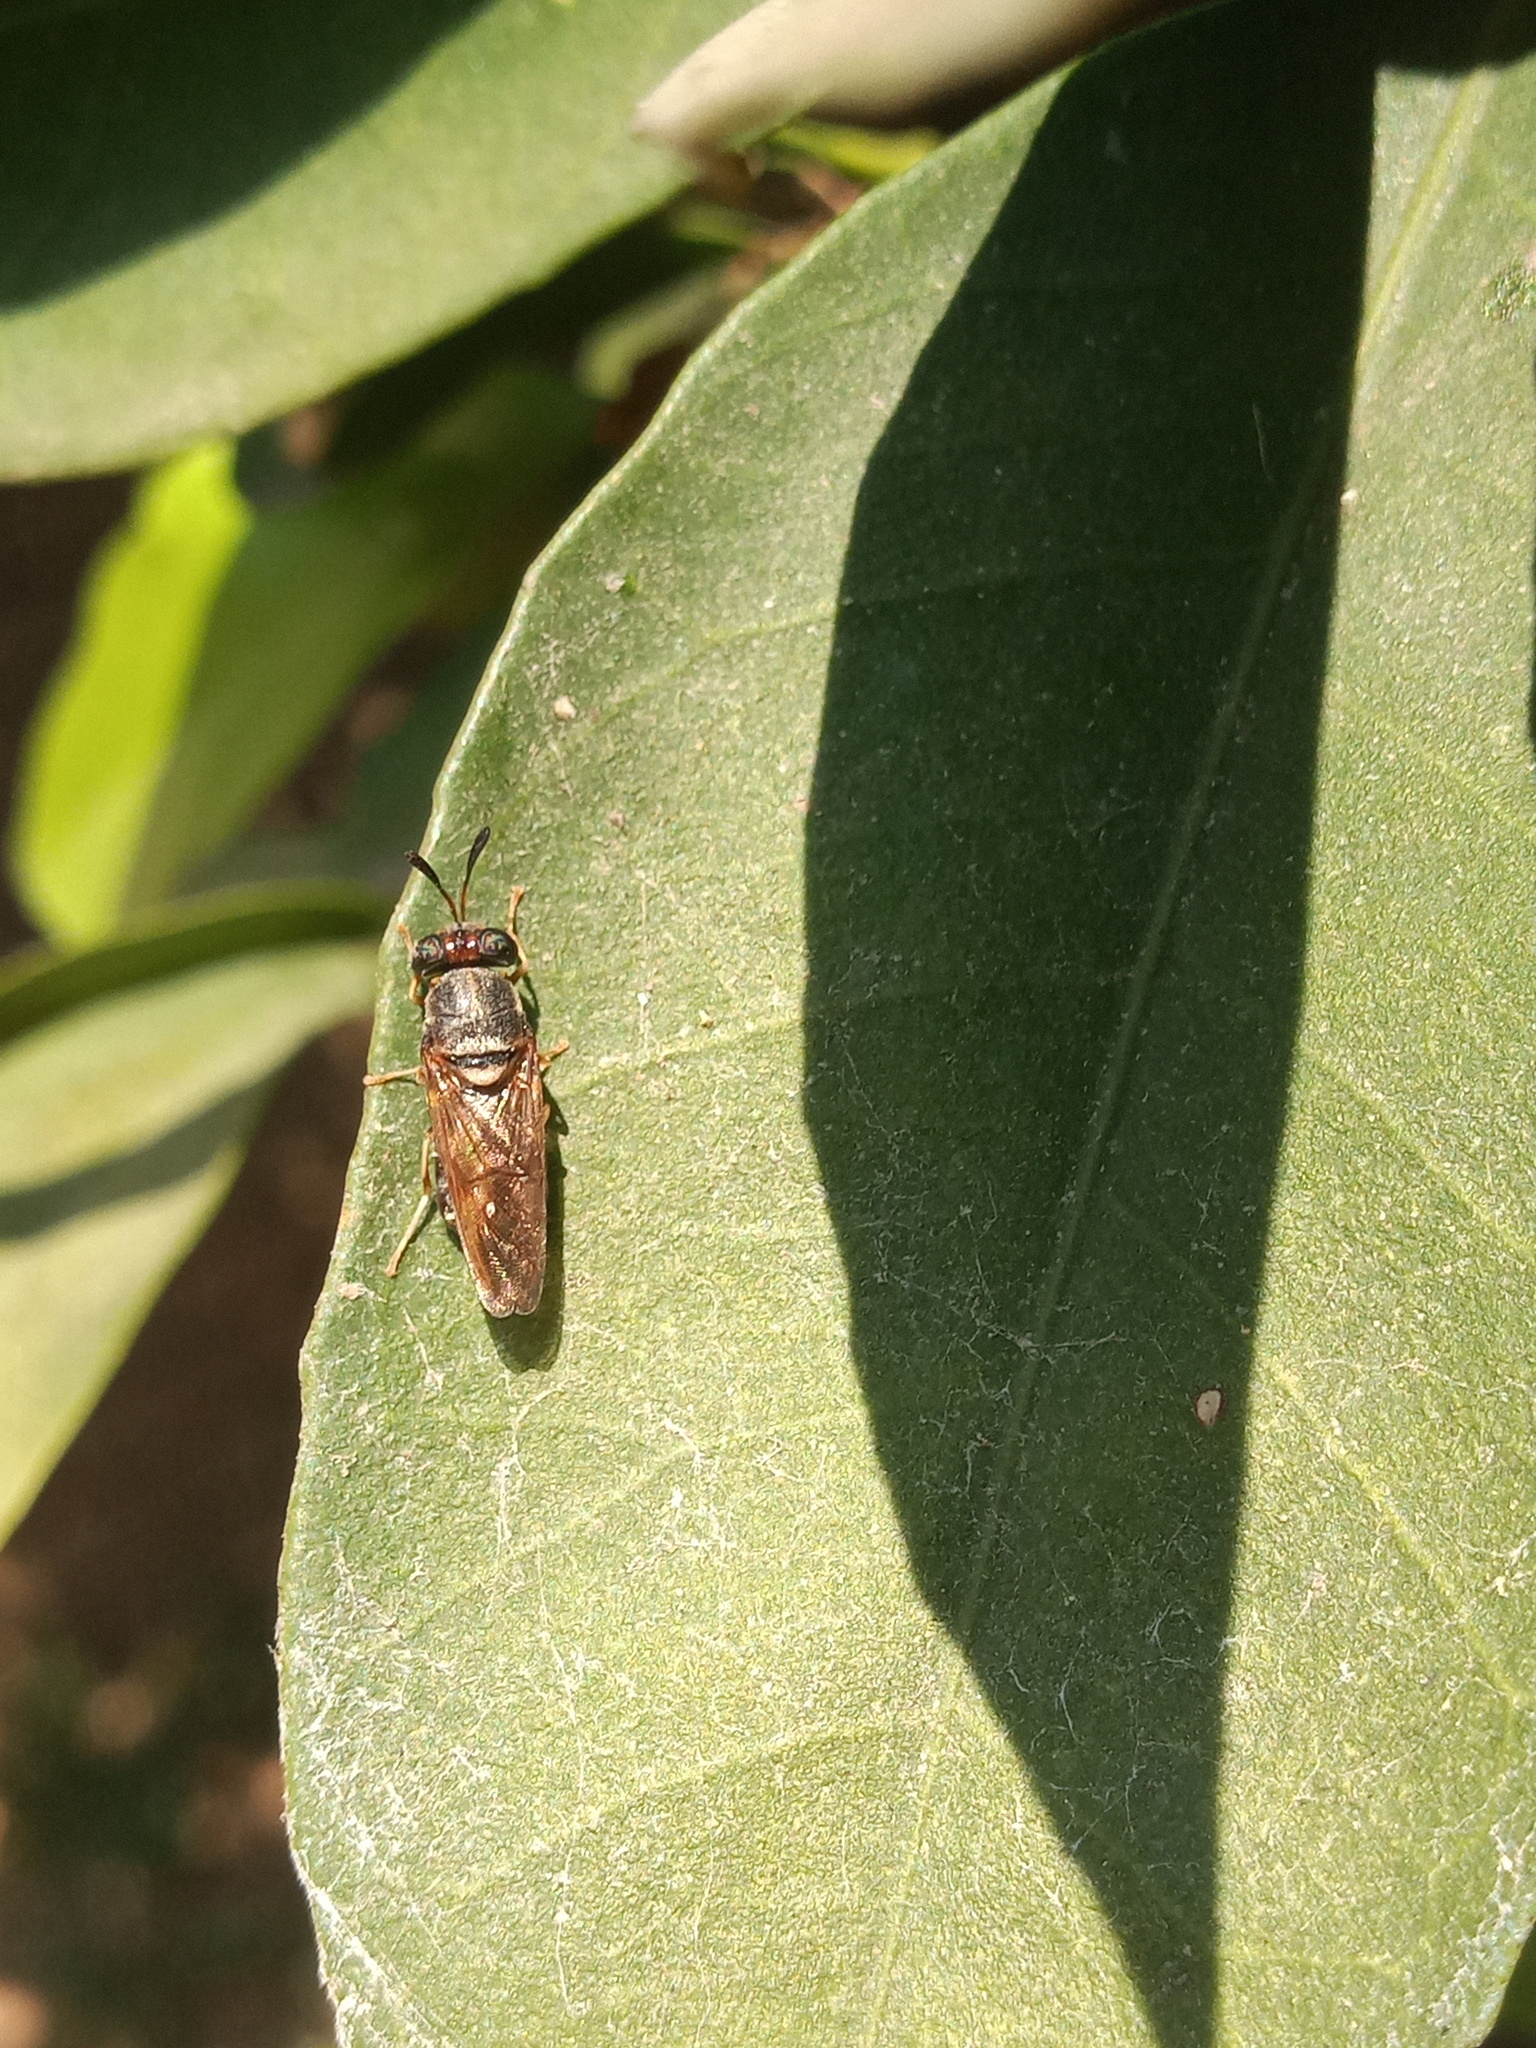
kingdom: Animalia
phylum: Arthropoda
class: Insecta
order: Diptera
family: Stratiomyidae
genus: Hermetia
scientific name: Hermetia chrysopila
